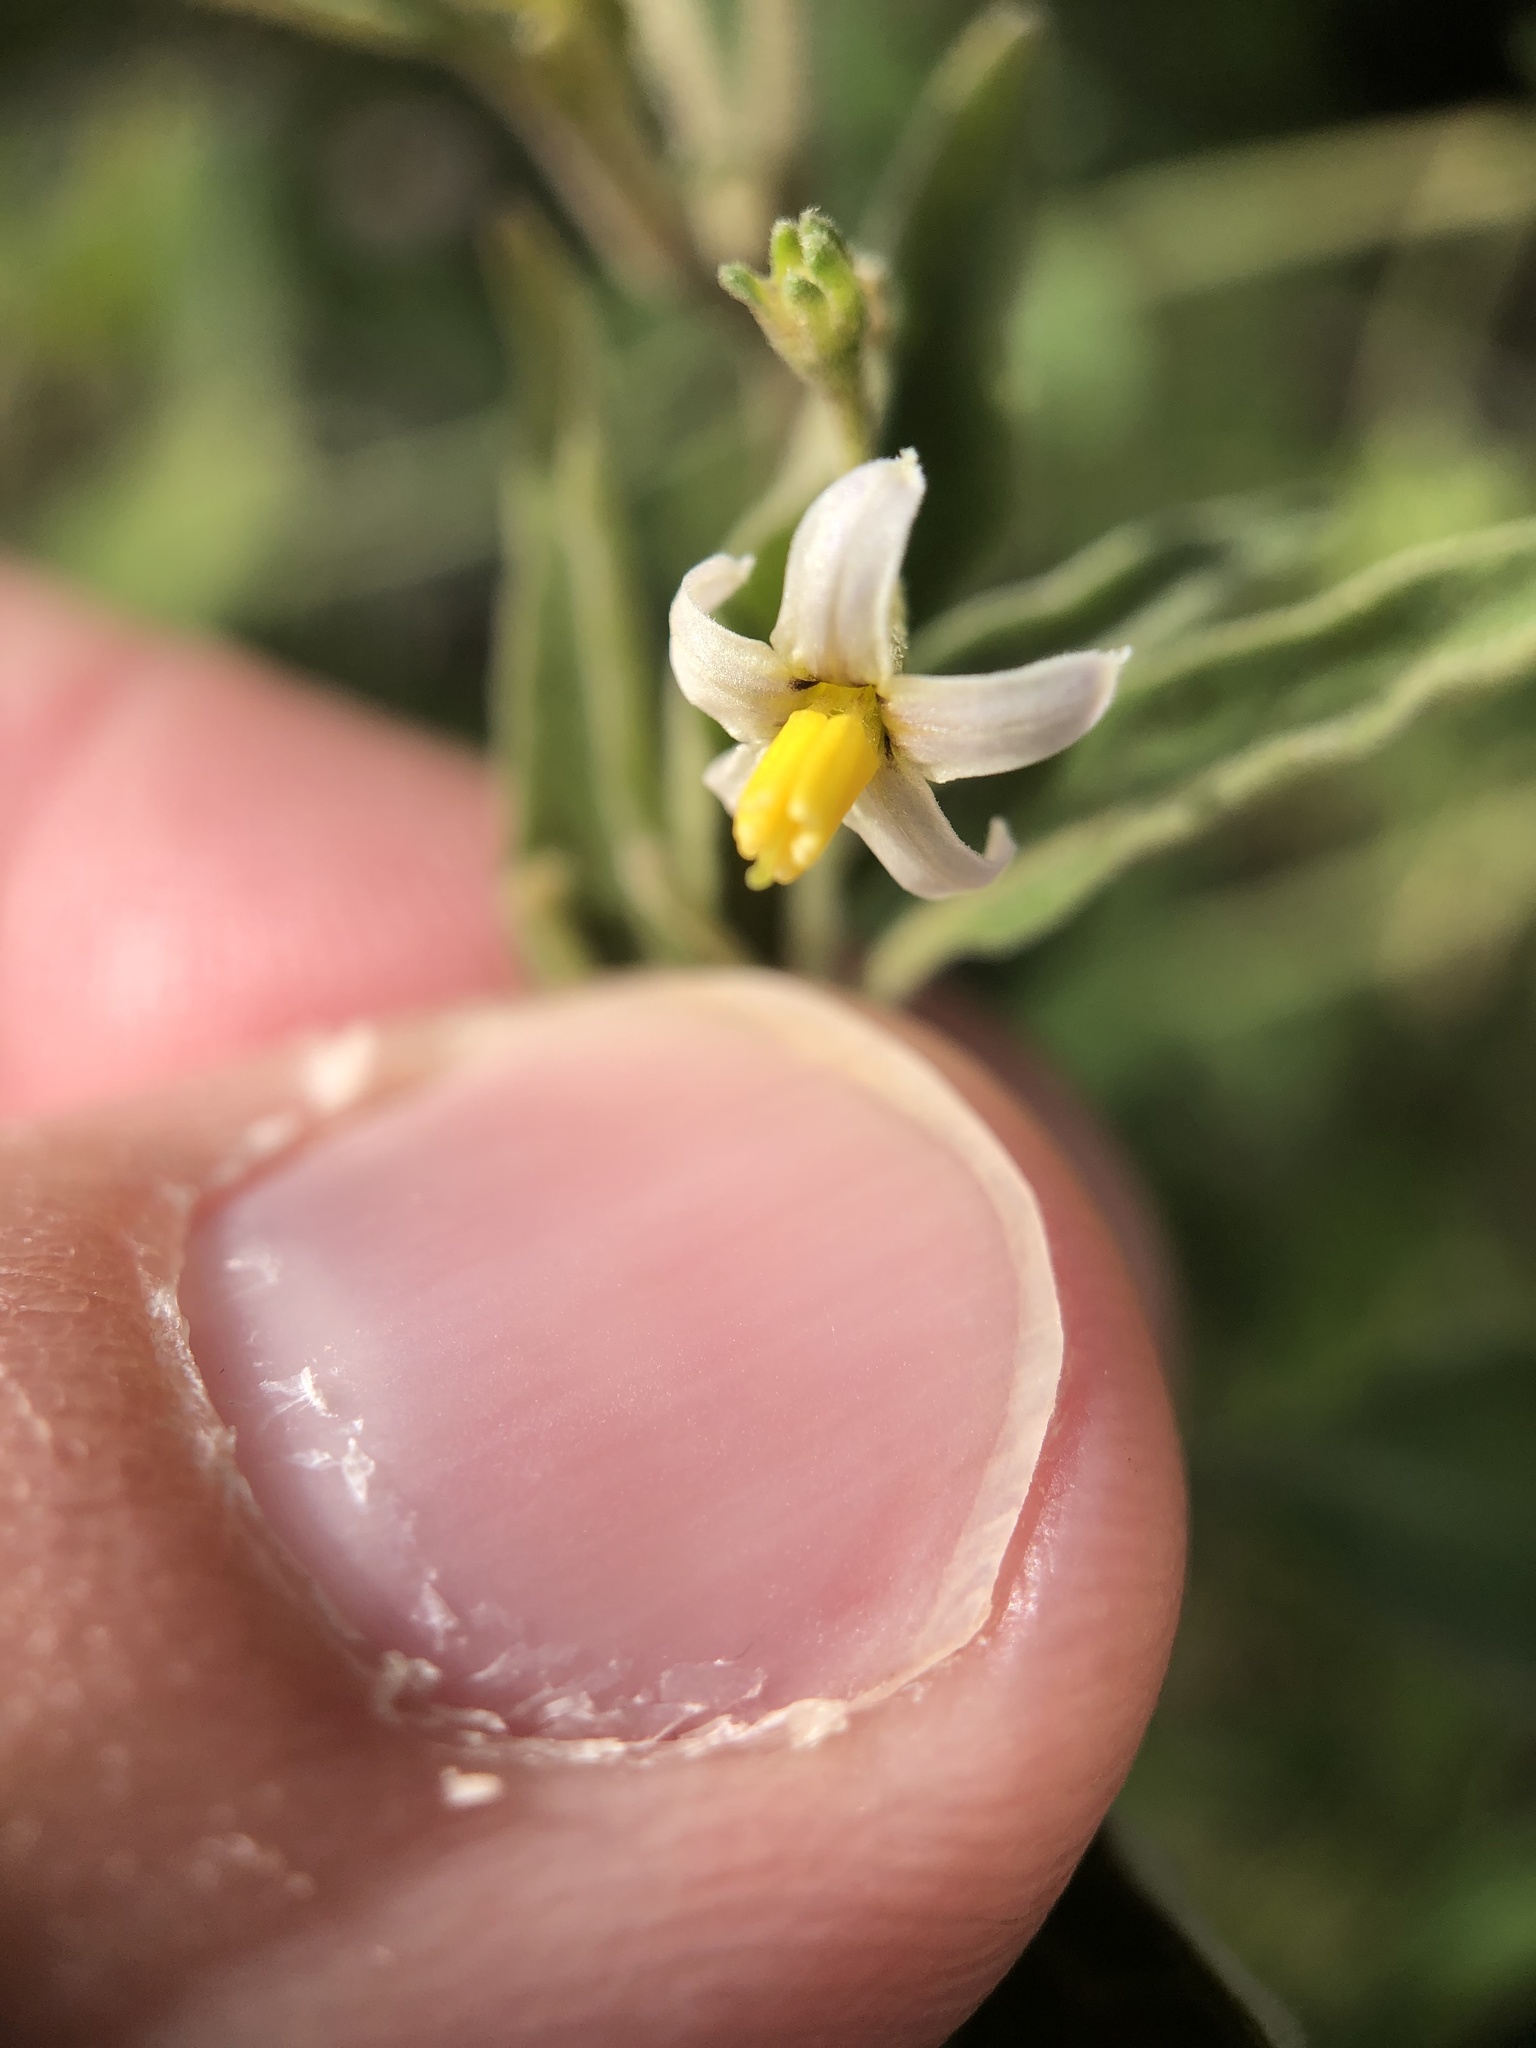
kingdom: Plantae
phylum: Tracheophyta
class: Magnoliopsida
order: Solanales
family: Solanaceae
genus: Solanum
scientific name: Solanum chenopodioides
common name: Tall nightshade
